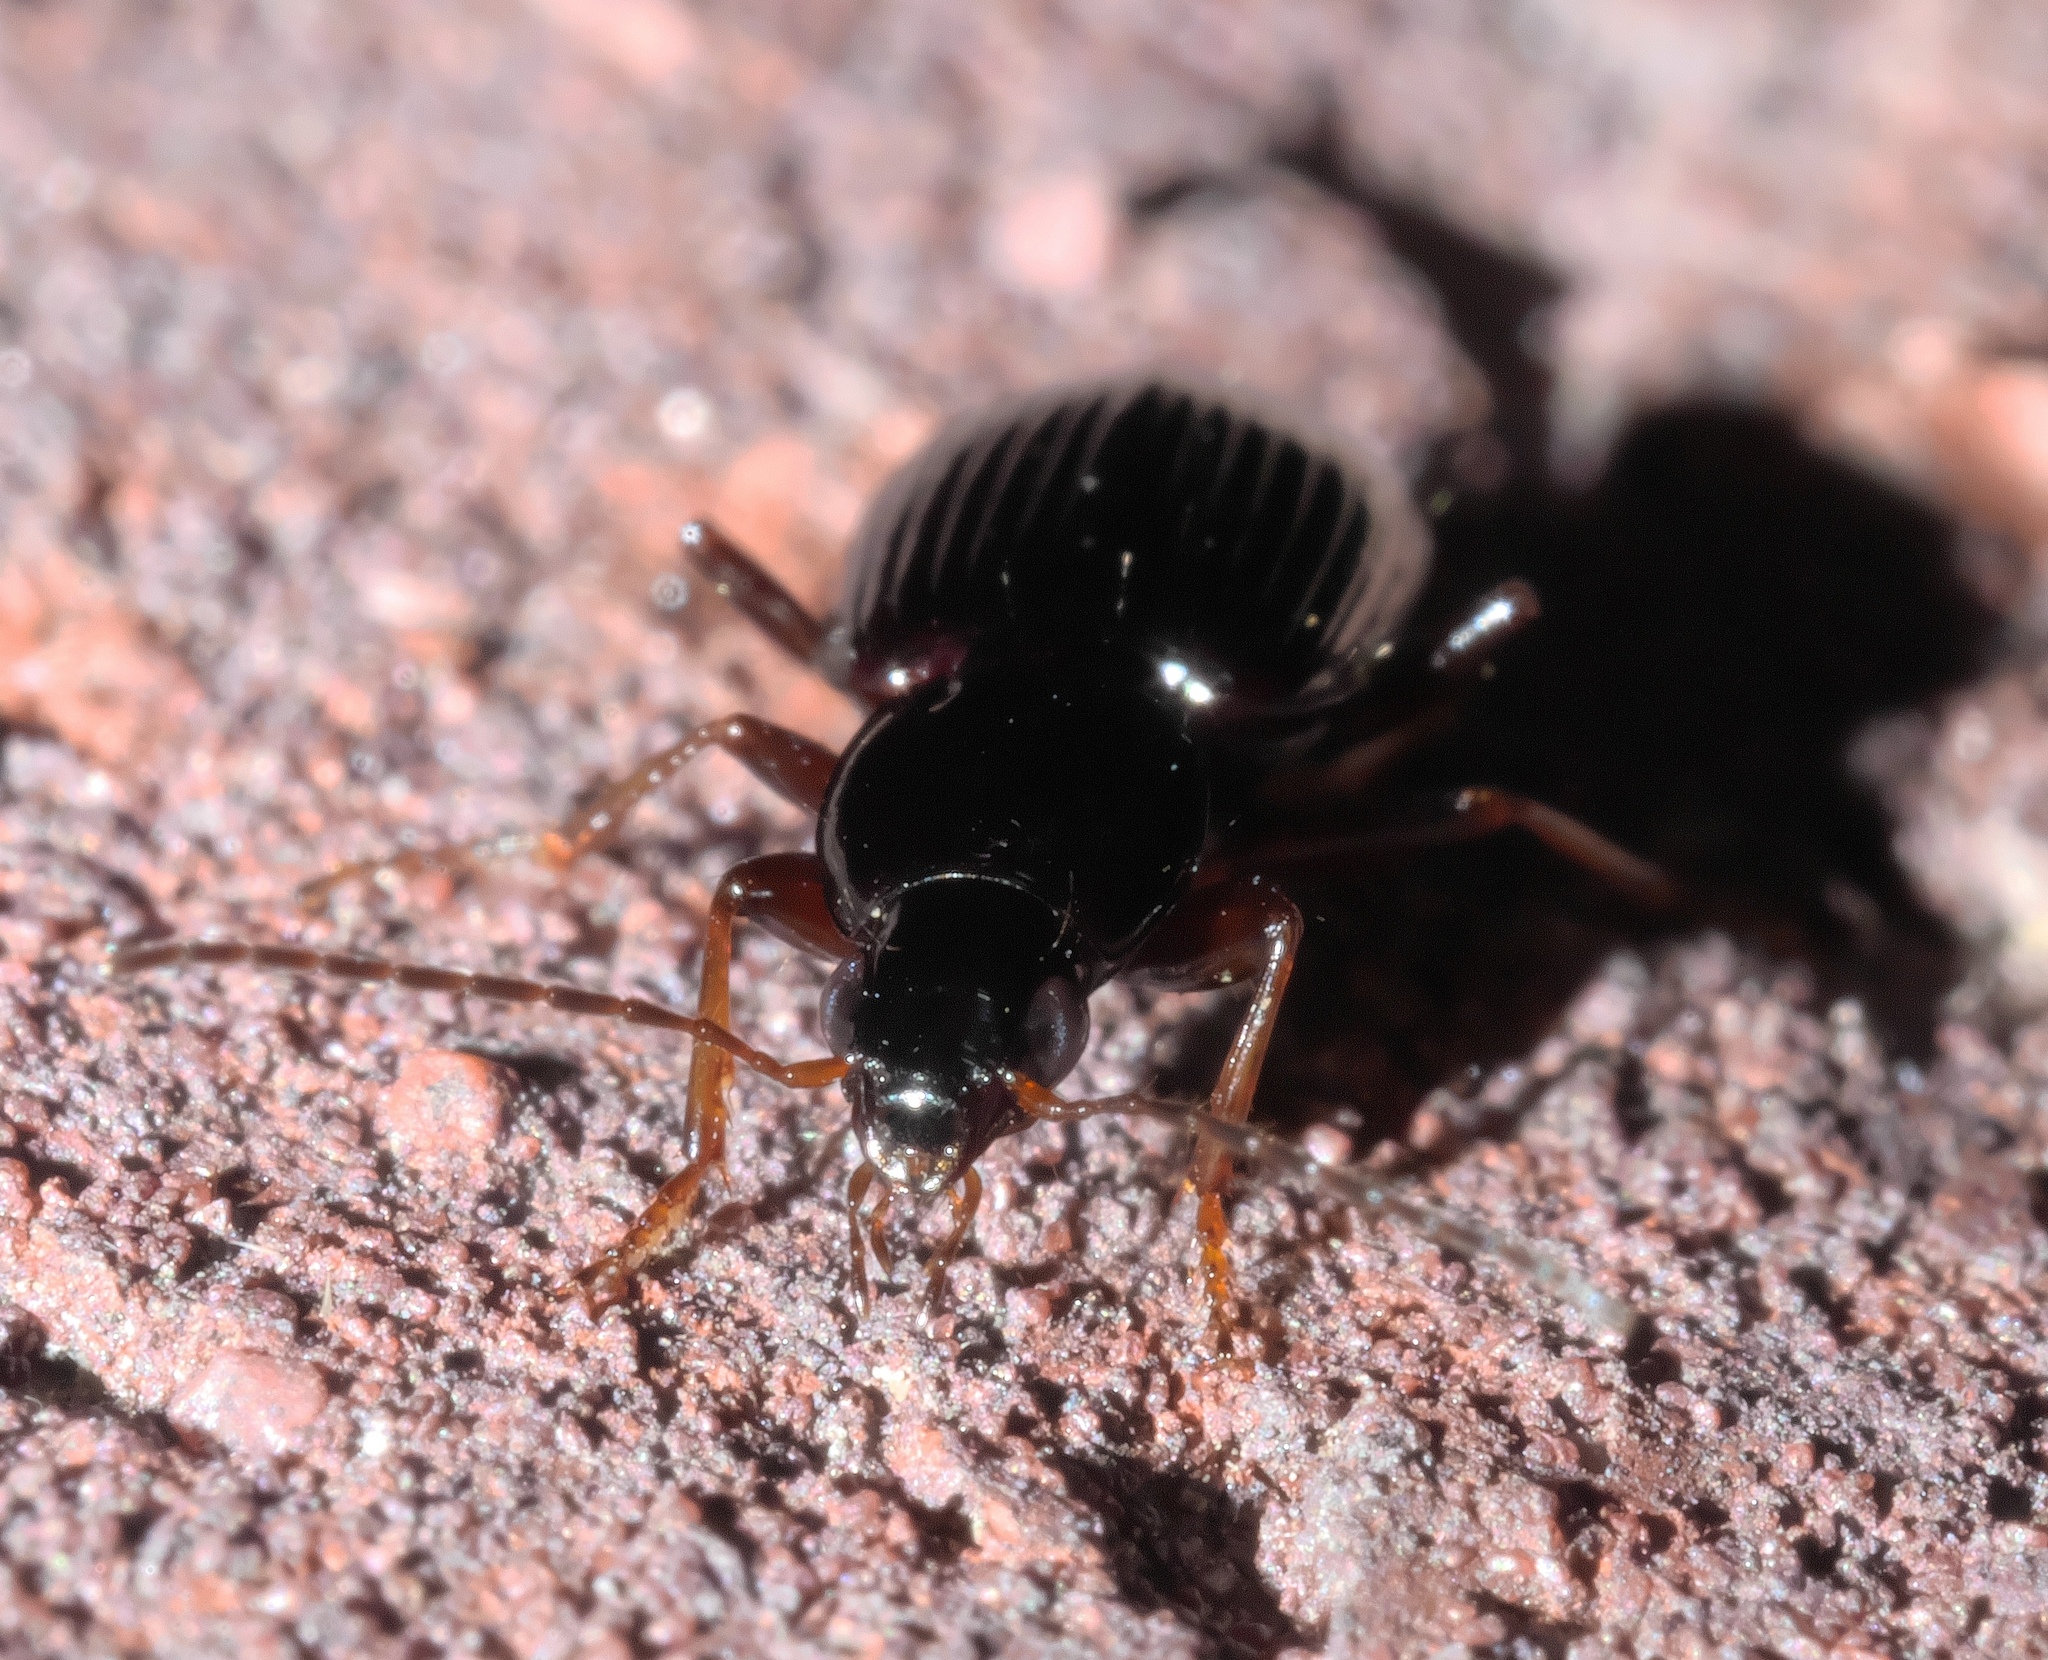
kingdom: Animalia
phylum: Arthropoda
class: Insecta
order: Coleoptera
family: Carabidae
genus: Agonum
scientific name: Agonum punctiforme
